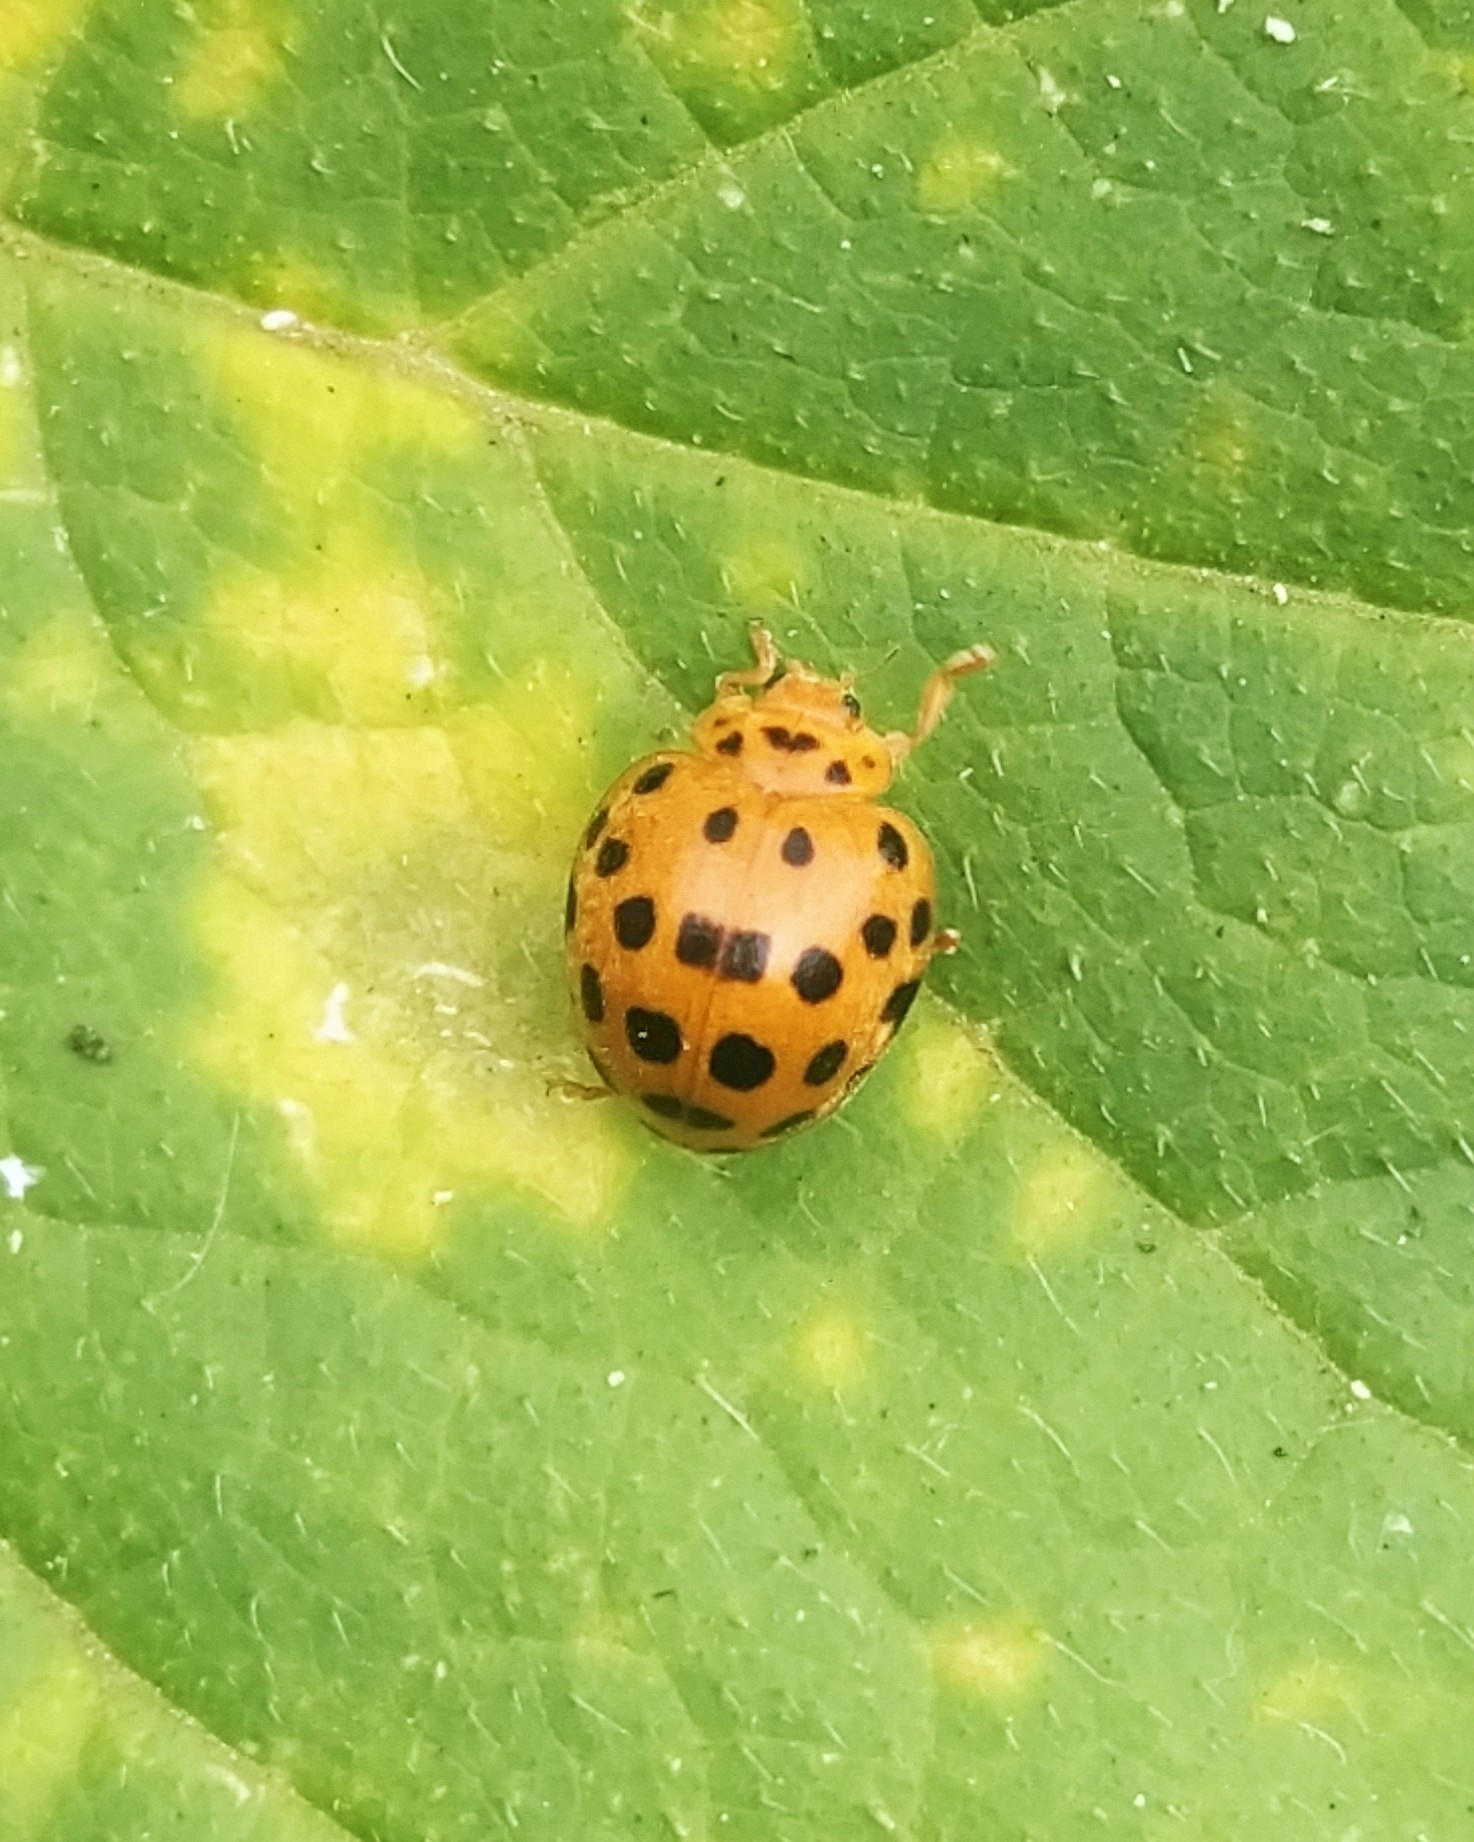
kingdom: Animalia
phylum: Arthropoda
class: Insecta
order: Coleoptera
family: Coccinellidae
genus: Henosepilachna
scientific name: Henosepilachna vigintioctopunctata
